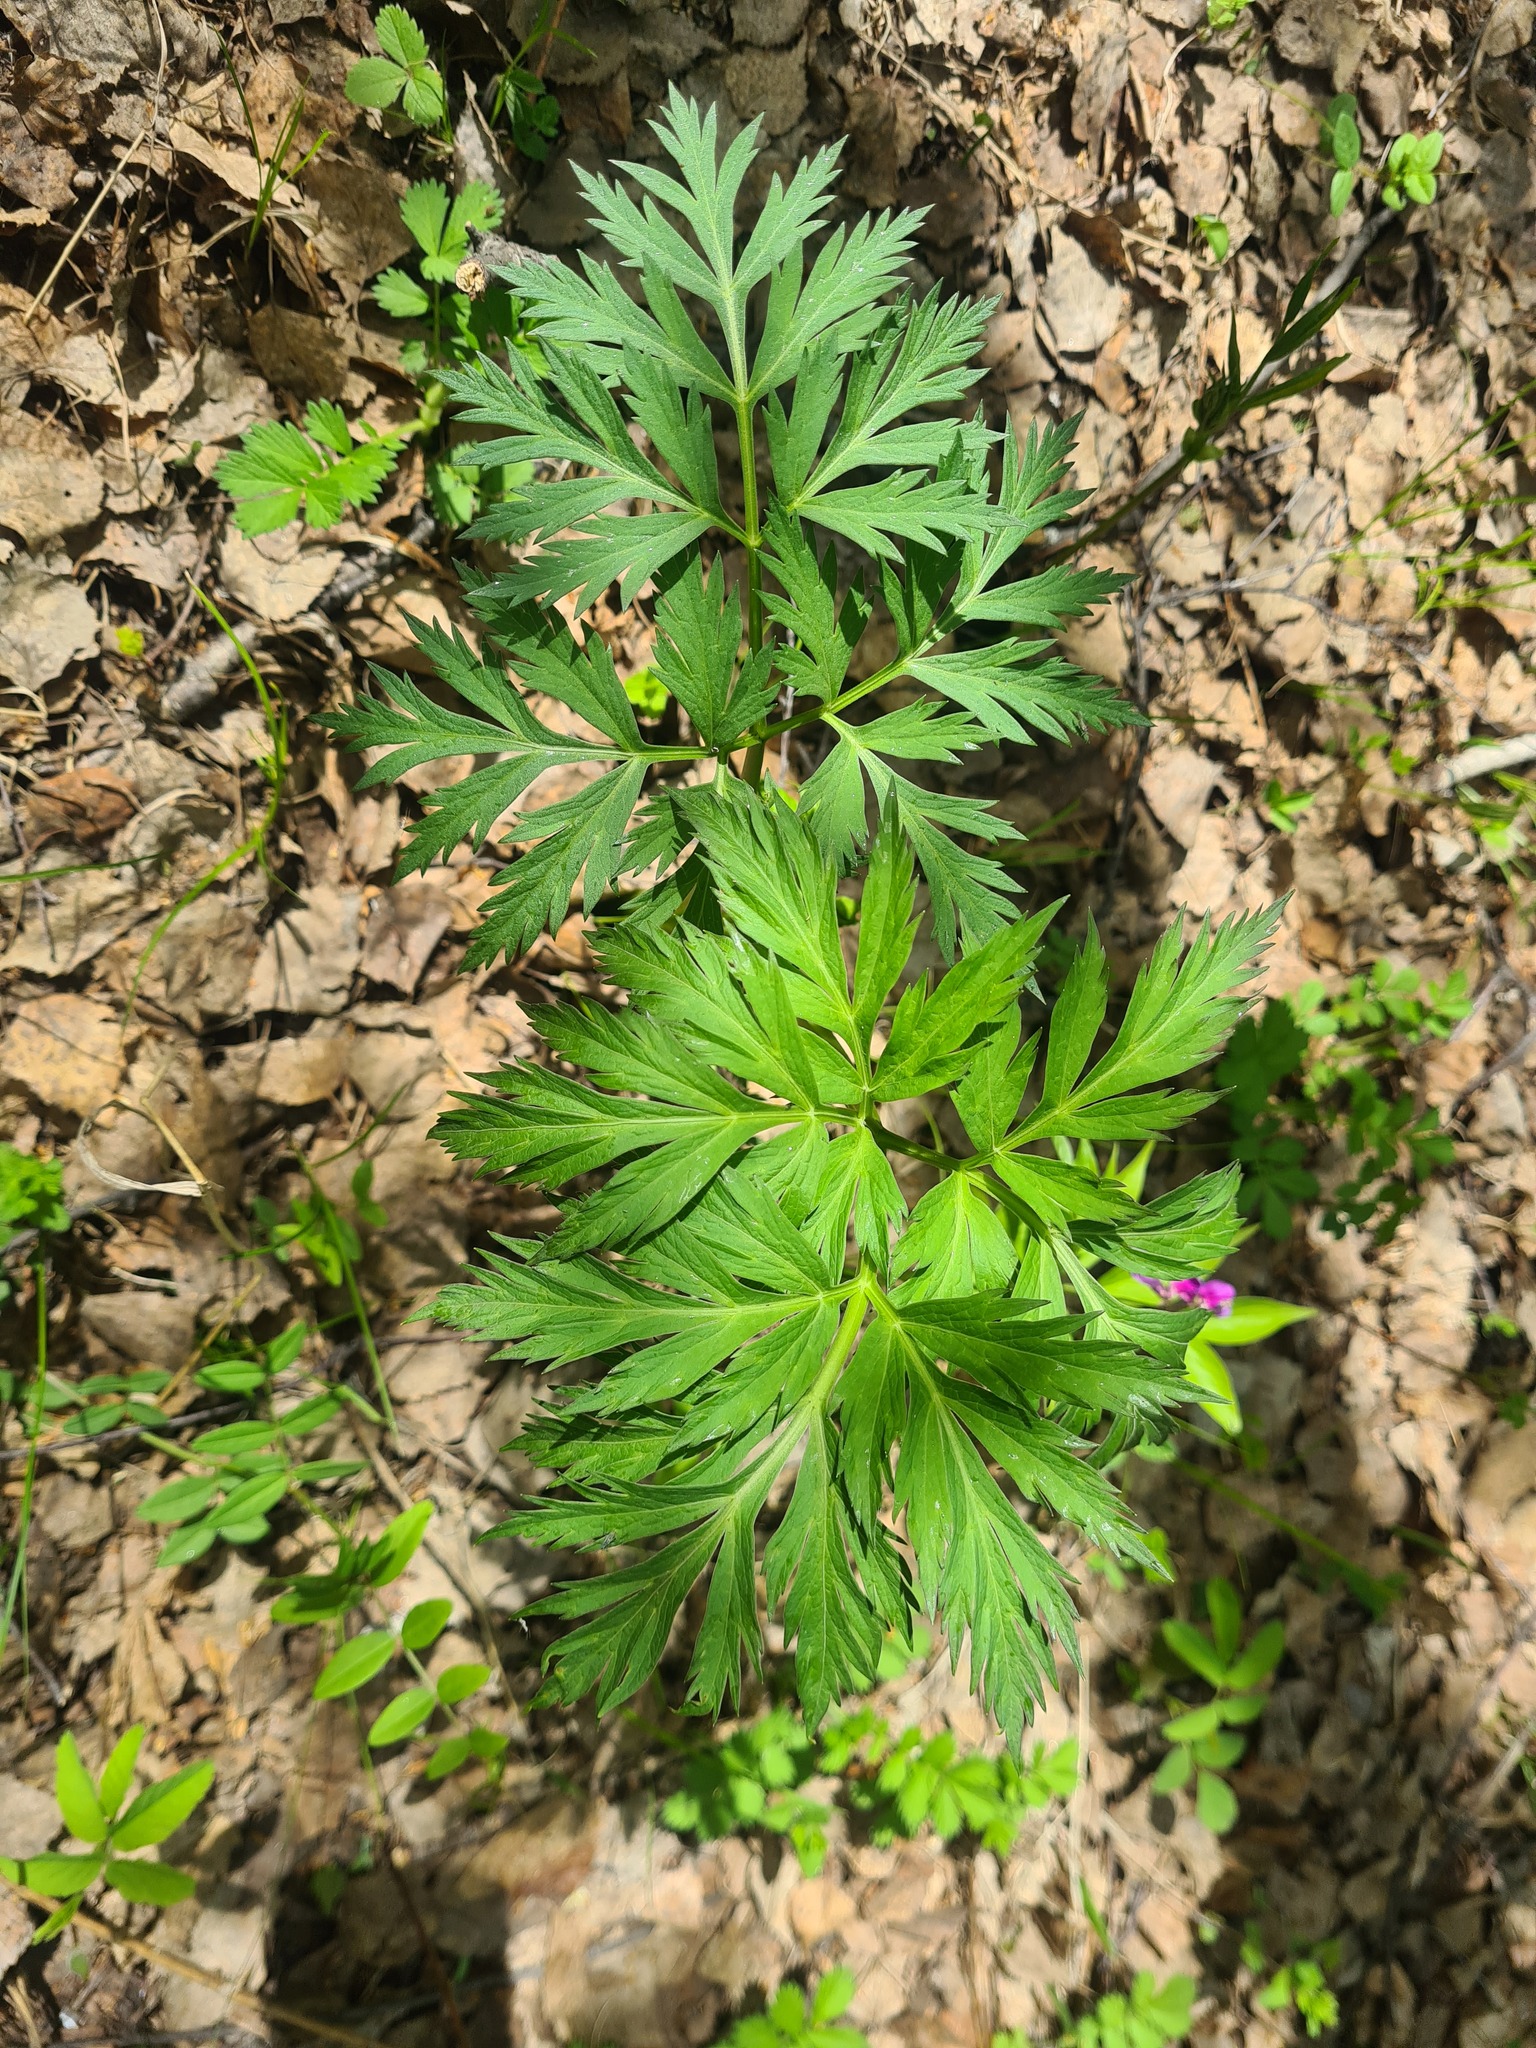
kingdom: Plantae
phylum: Tracheophyta
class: Magnoliopsida
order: Apiales
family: Apiaceae
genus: Pleurospermum
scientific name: Pleurospermum uralense
